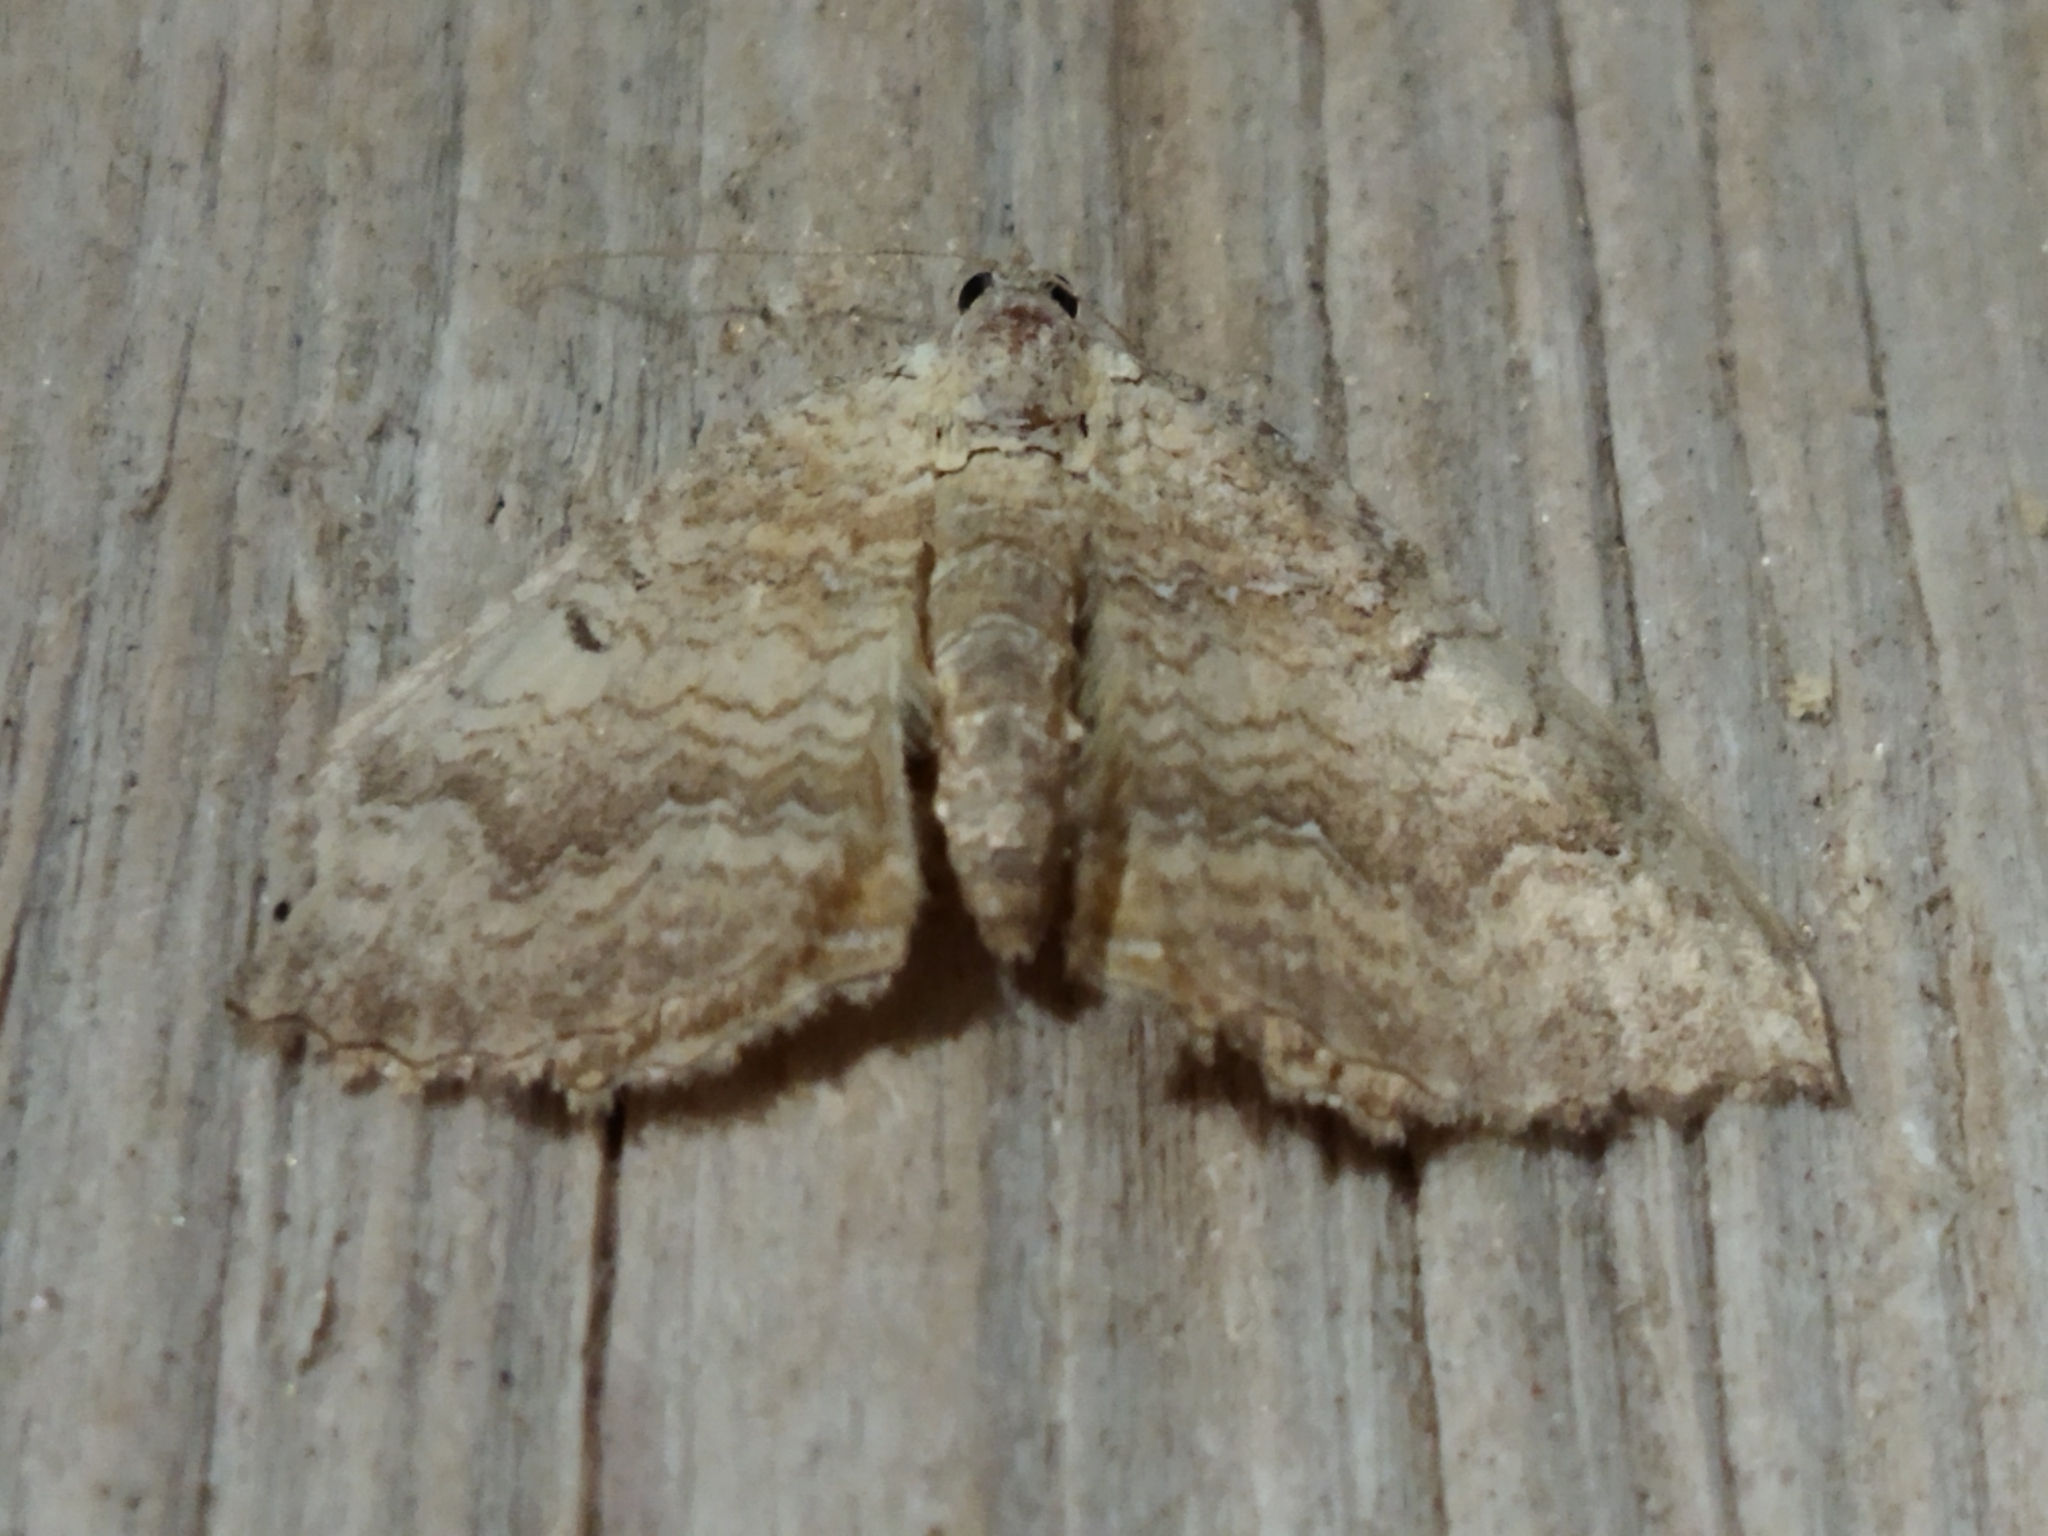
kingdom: Animalia
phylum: Arthropoda
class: Insecta
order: Lepidoptera
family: Geometridae
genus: Camptogramma
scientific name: Camptogramma bilineata
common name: Yellow shell
